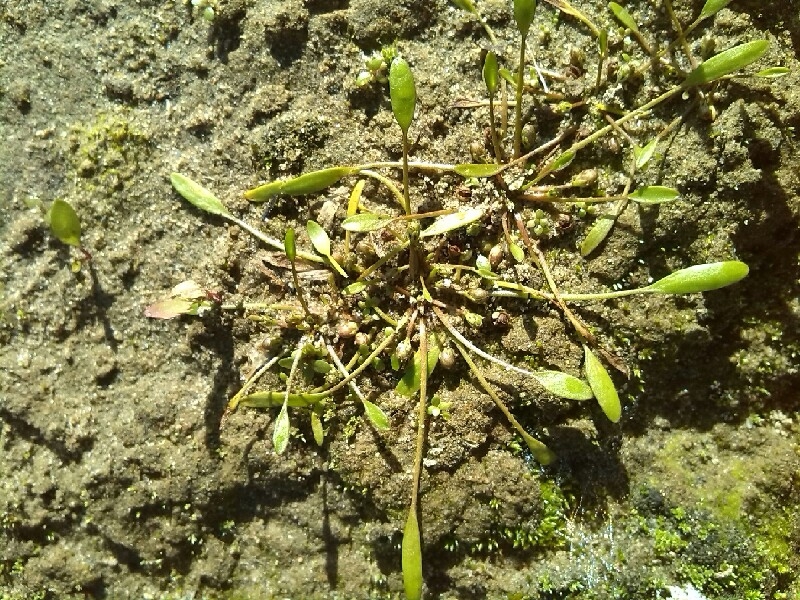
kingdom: Plantae
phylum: Tracheophyta
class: Magnoliopsida
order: Lamiales
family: Scrophulariaceae
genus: Limosella
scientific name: Limosella aquatica
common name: Mudwort
